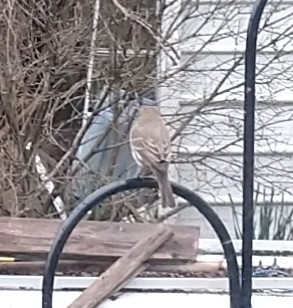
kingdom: Animalia
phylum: Chordata
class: Aves
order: Passeriformes
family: Fringillidae
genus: Haemorhous
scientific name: Haemorhous mexicanus
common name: House finch
